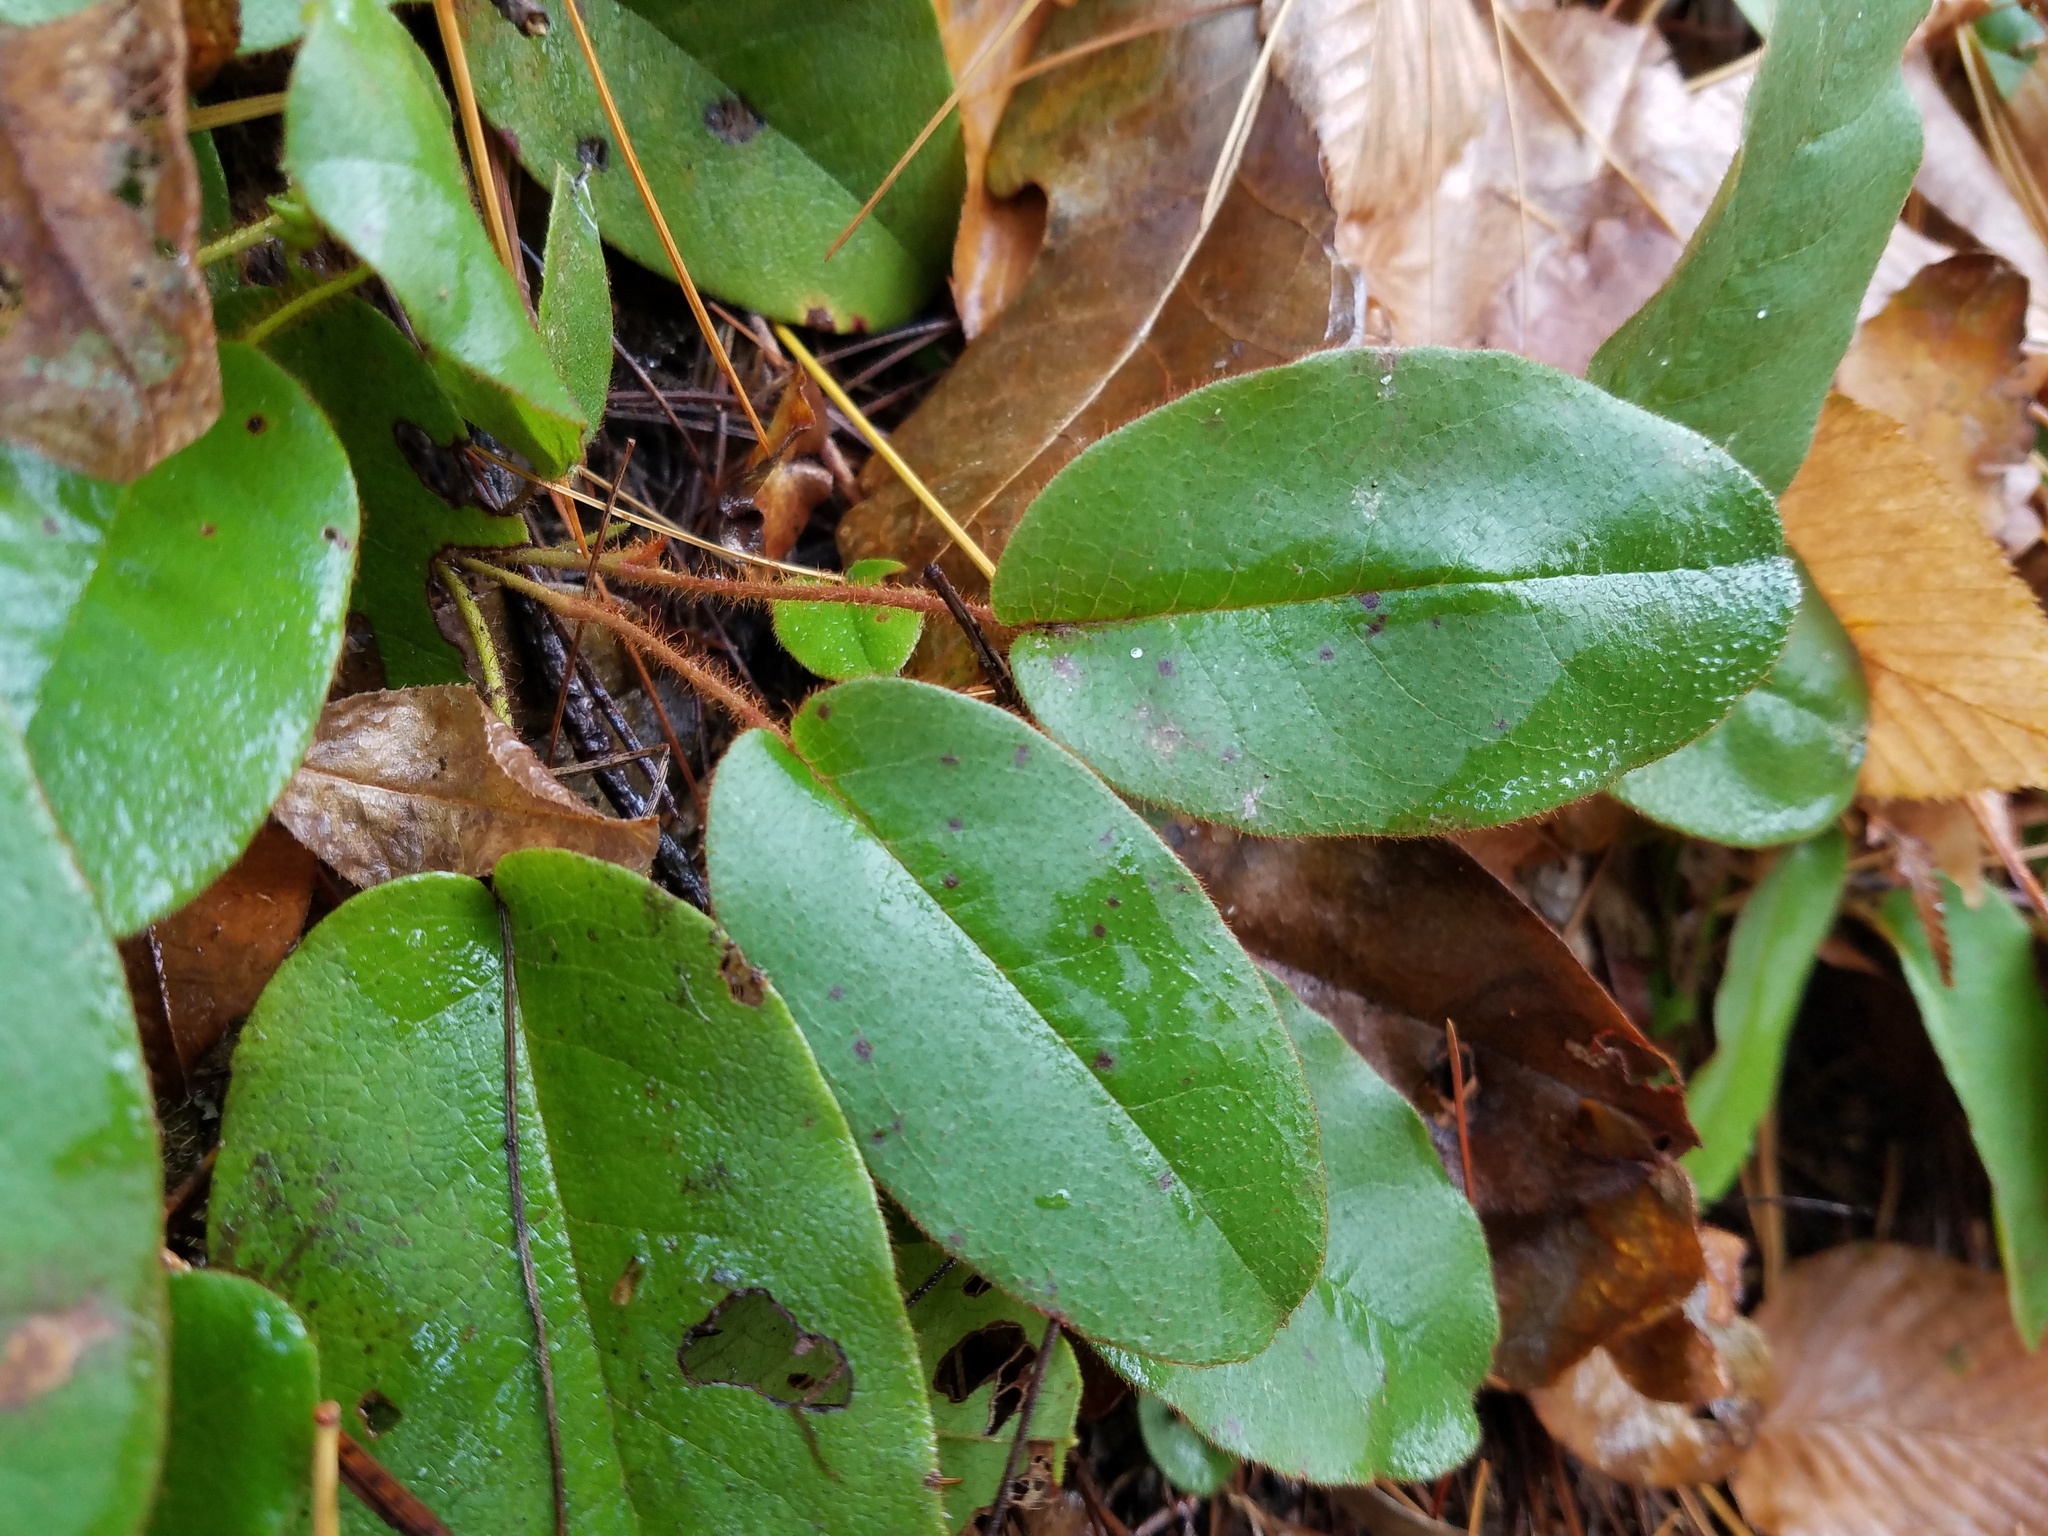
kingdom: Plantae
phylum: Tracheophyta
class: Magnoliopsida
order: Ericales
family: Ericaceae
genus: Epigaea
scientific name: Epigaea repens
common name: Gravelroot
